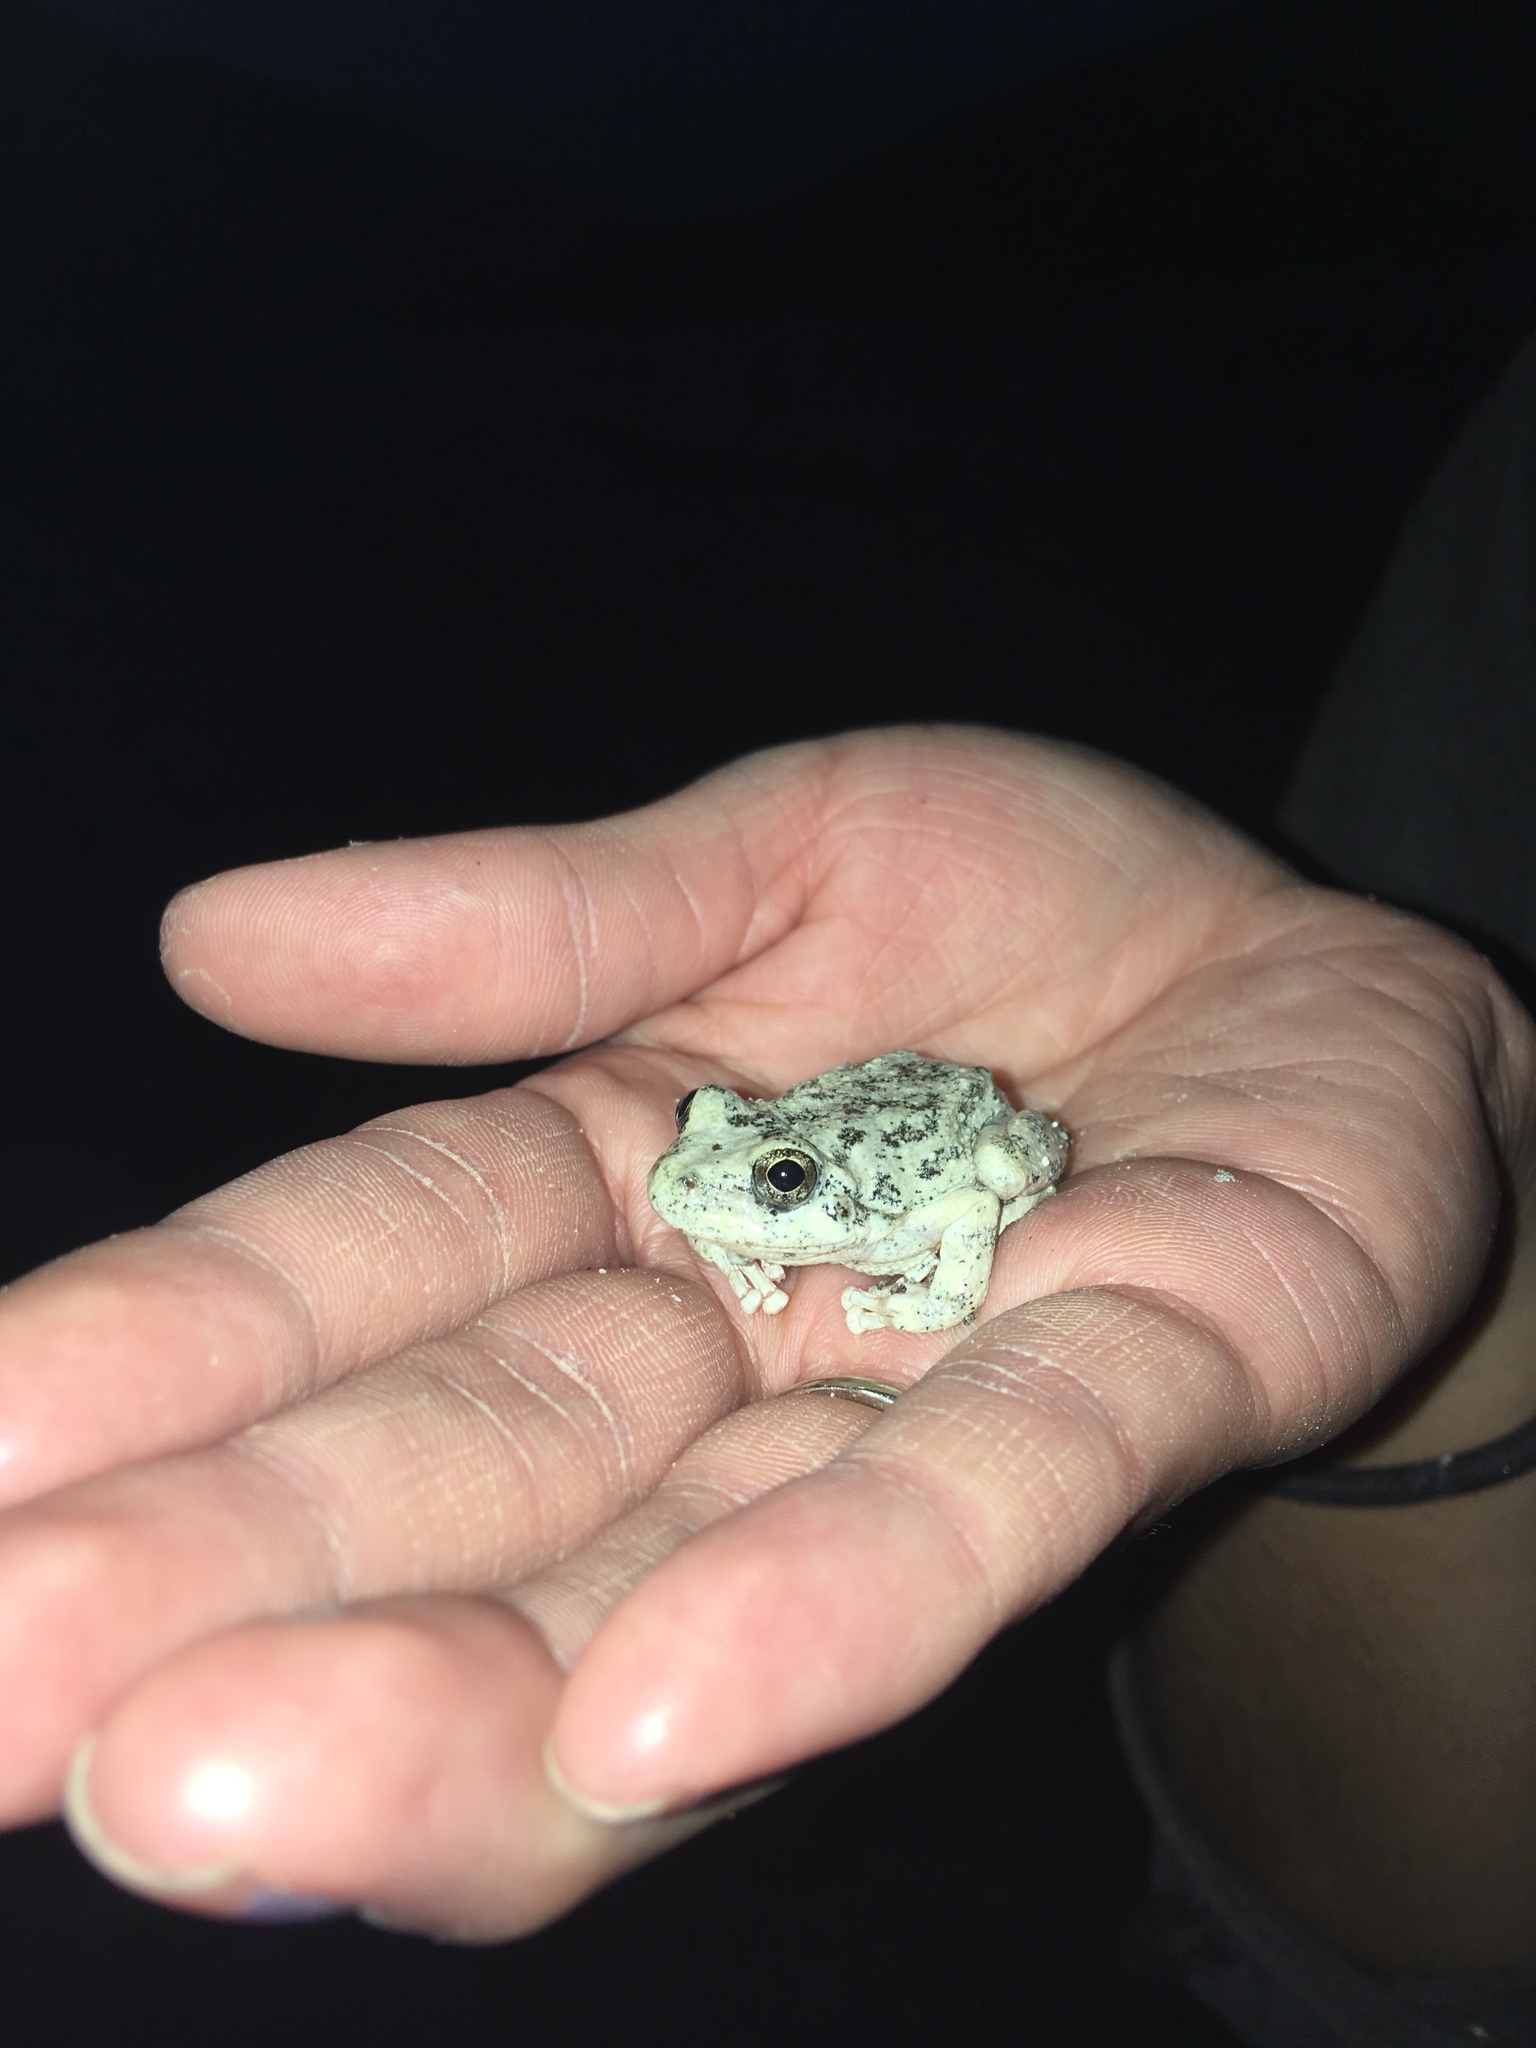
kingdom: Animalia
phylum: Chordata
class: Amphibia
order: Anura
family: Hylidae
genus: Pseudacris
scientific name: Pseudacris cadaverina
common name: California chorus frog
